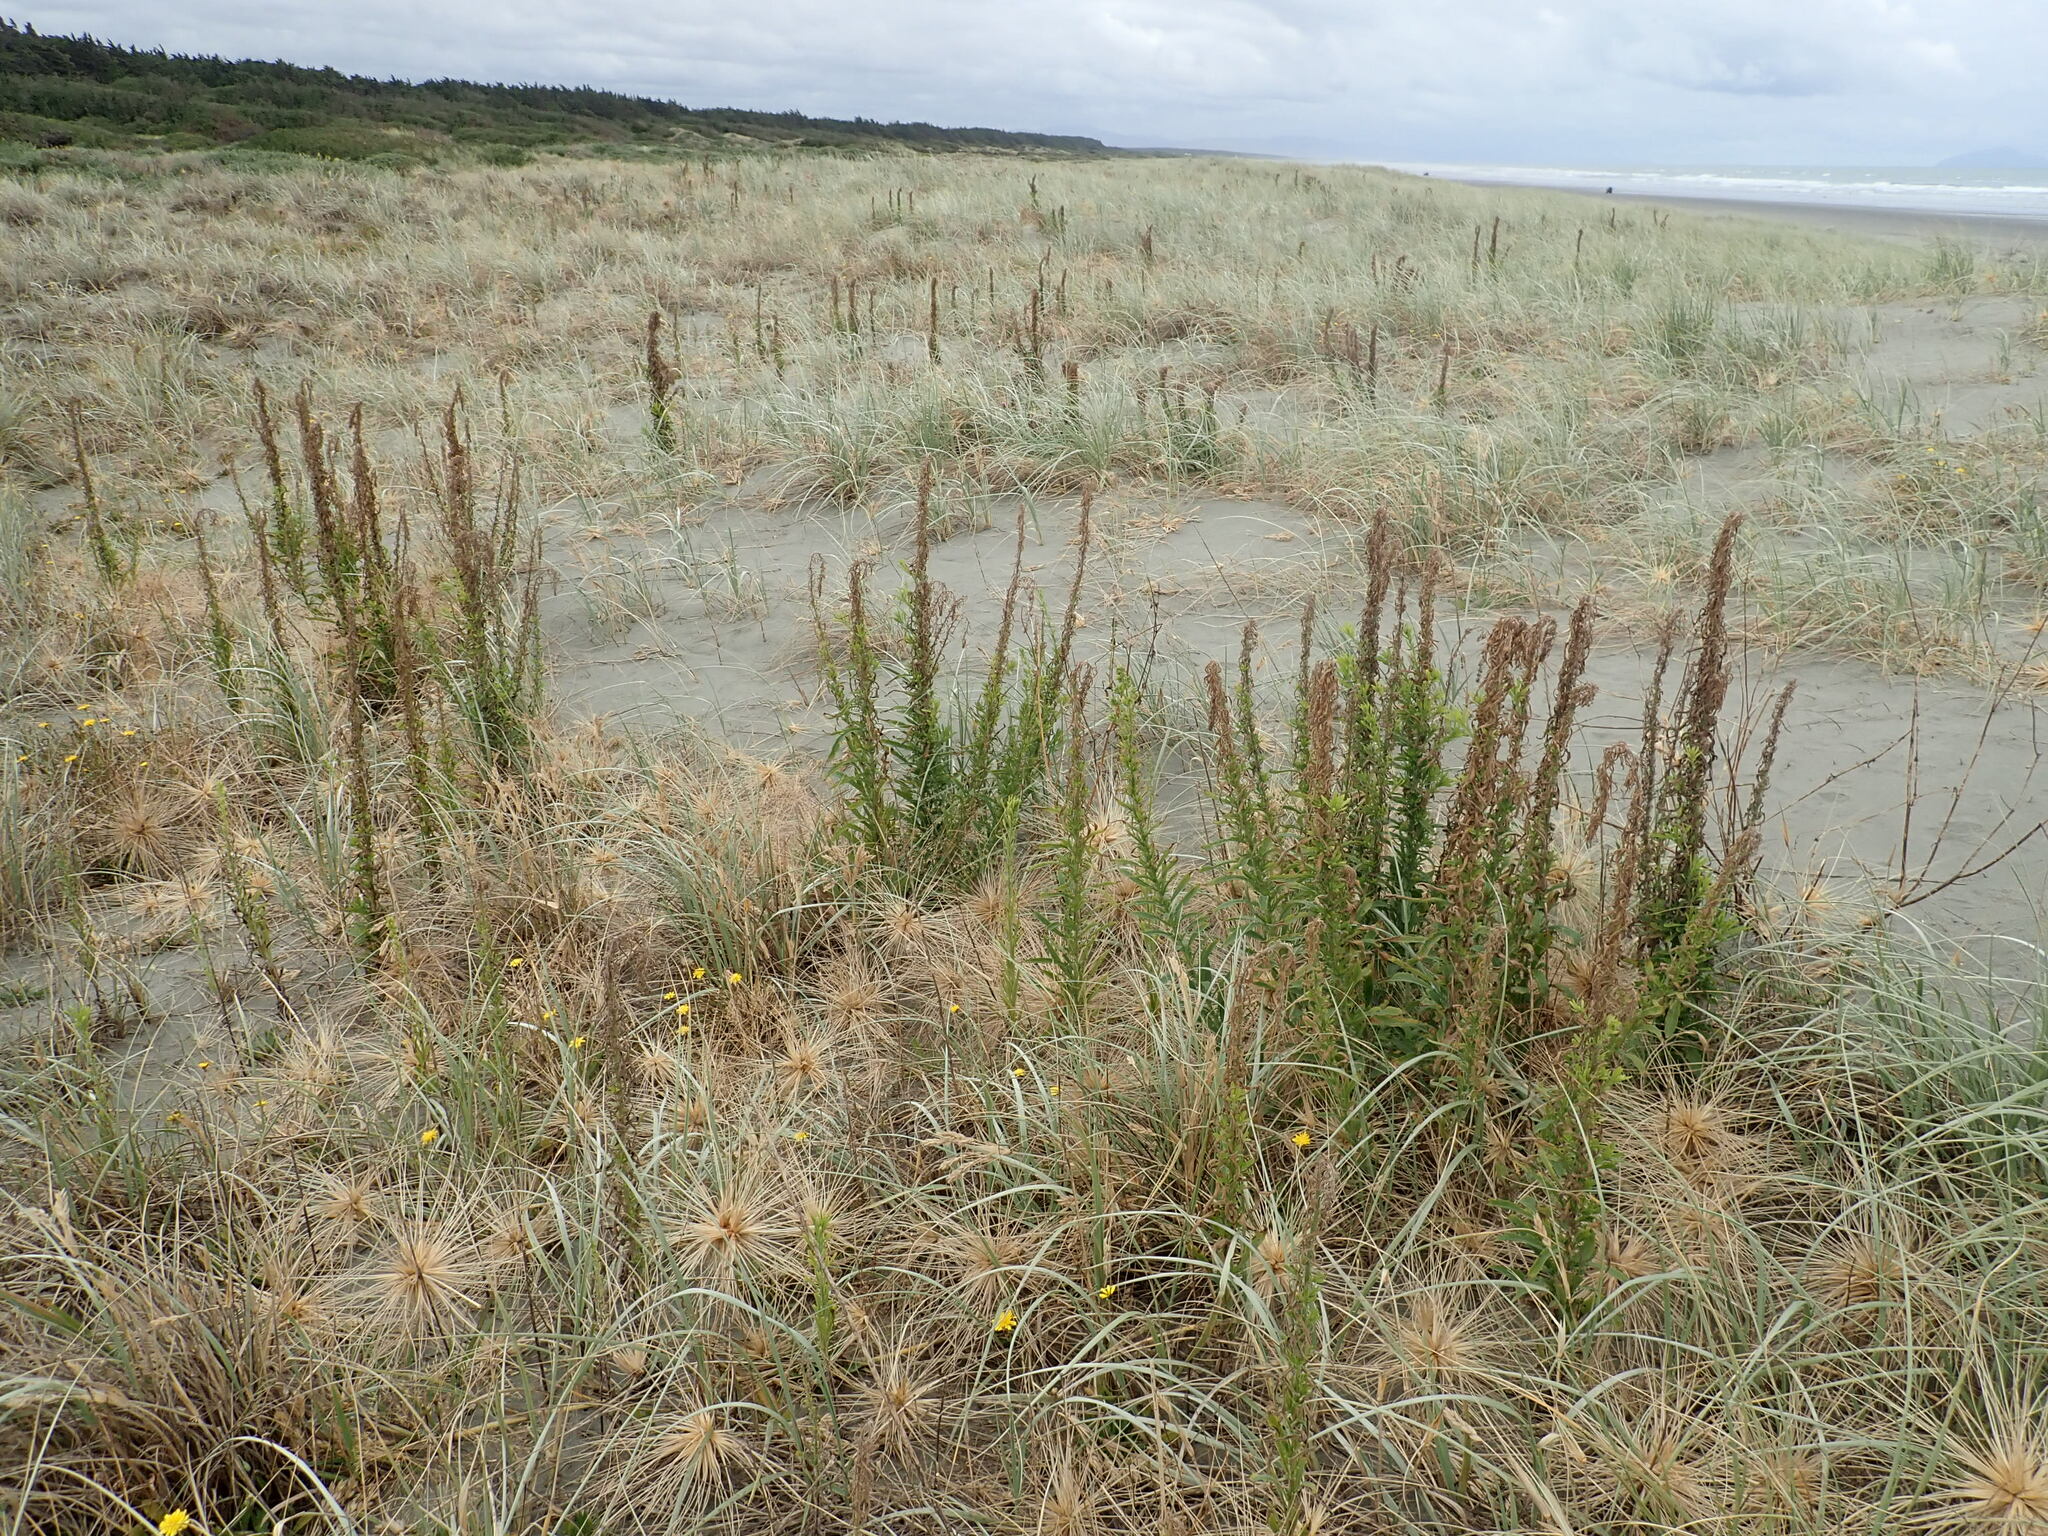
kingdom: Plantae
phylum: Tracheophyta
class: Magnoliopsida
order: Asterales
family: Asteraceae
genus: Erigeron
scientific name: Erigeron sumatrensis
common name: Daisy
